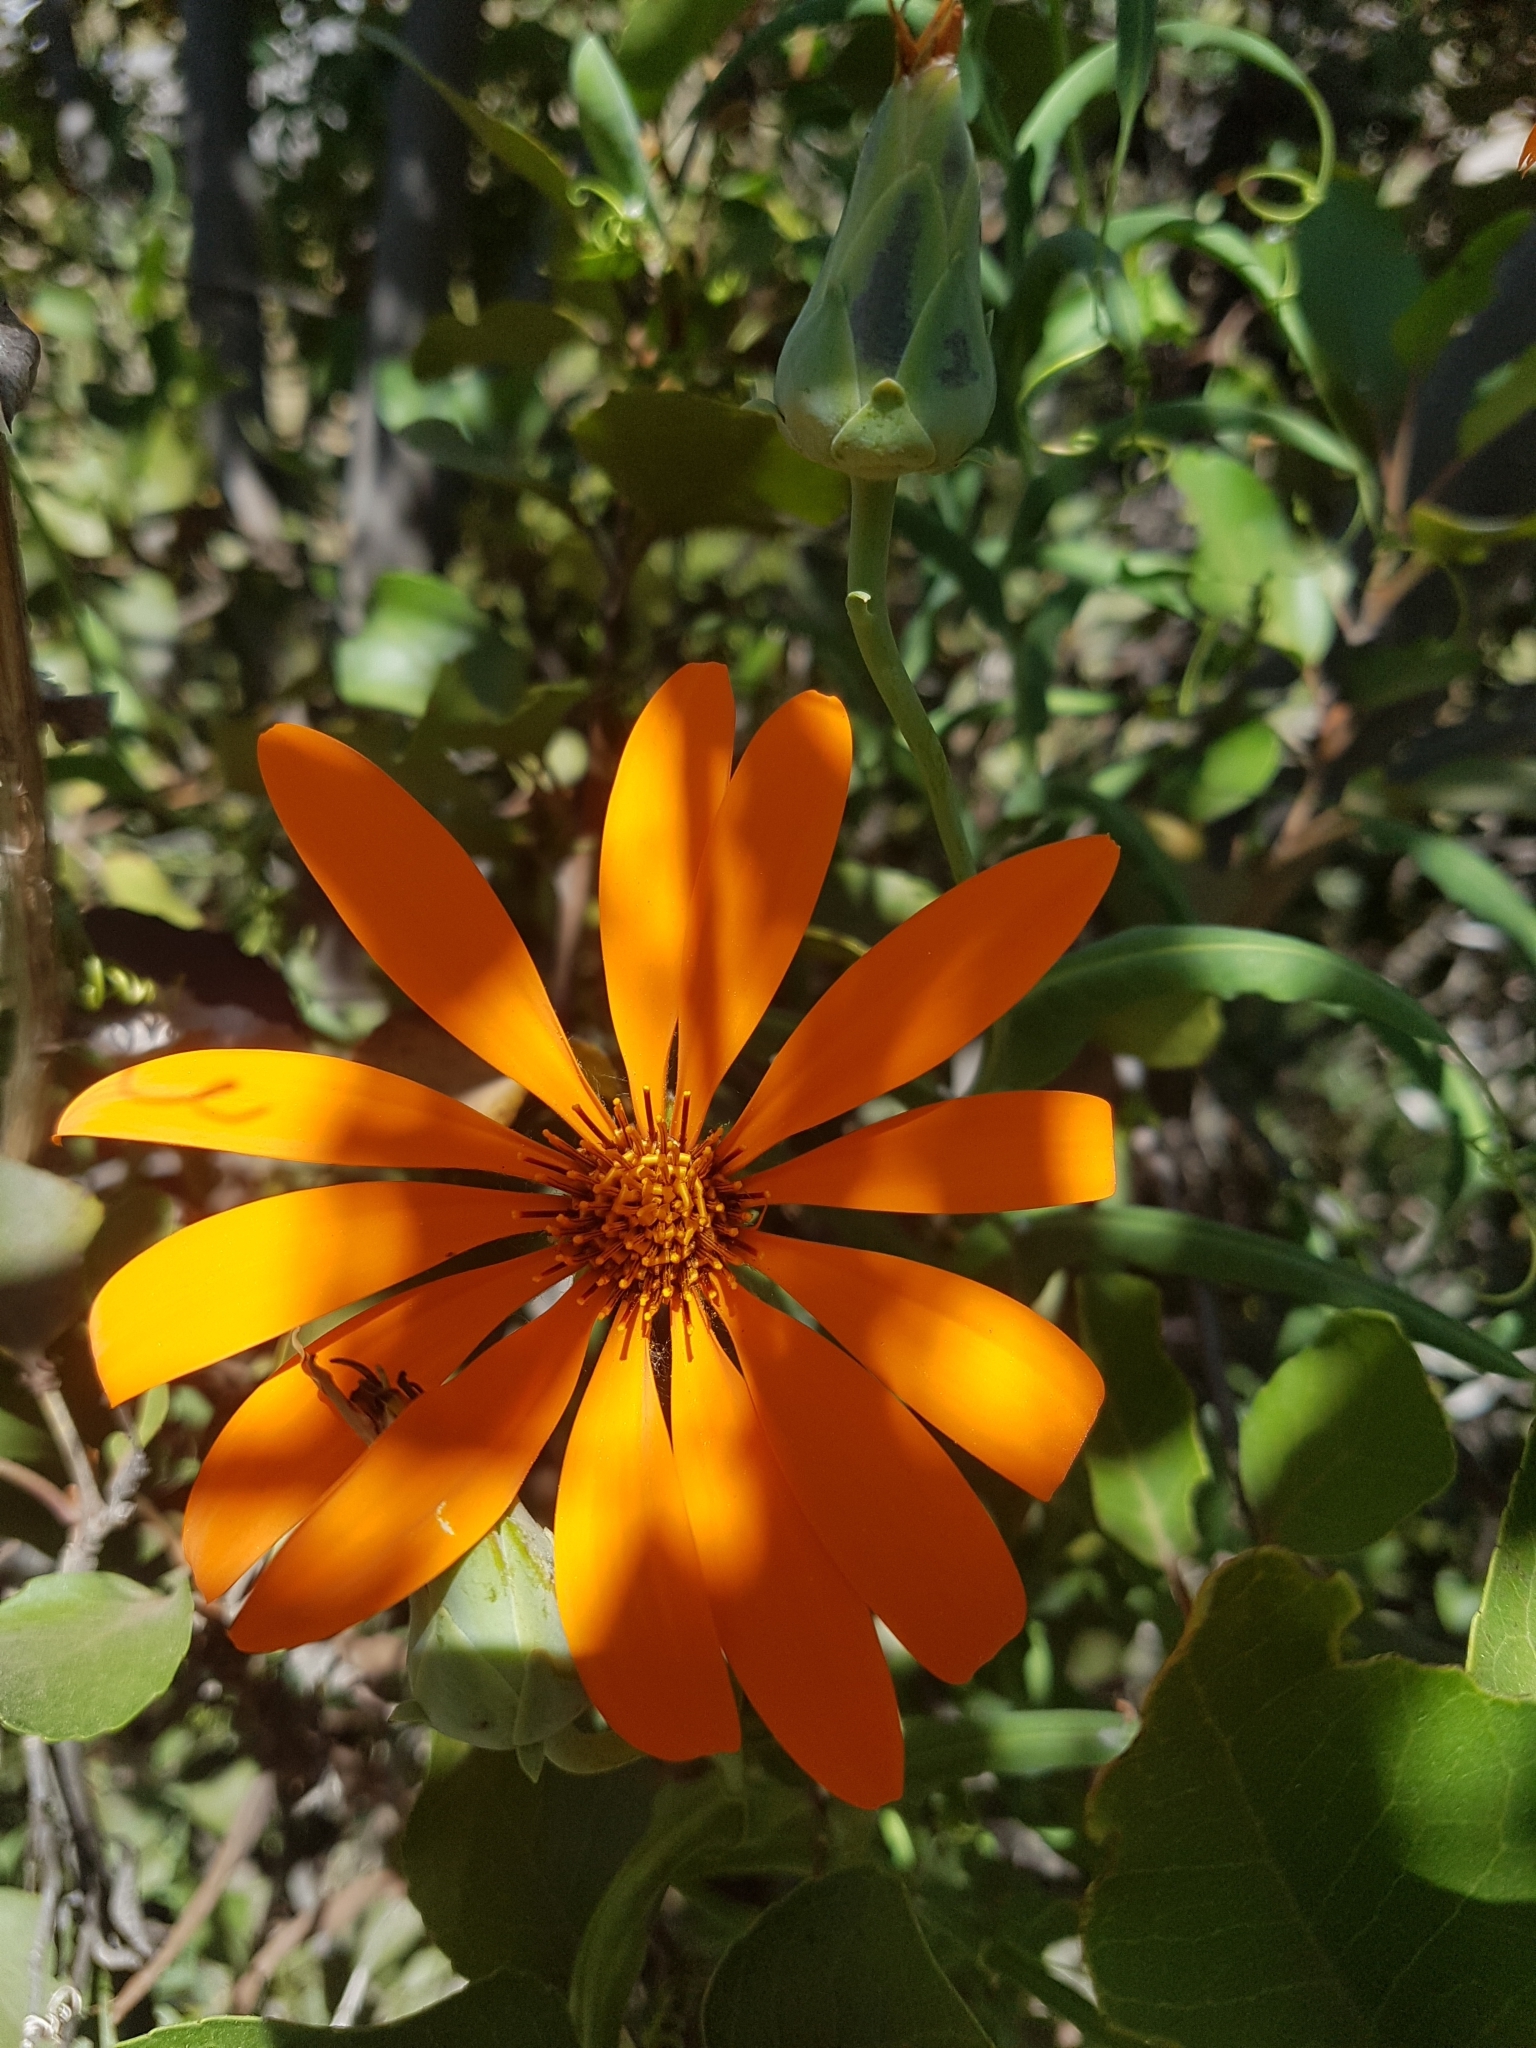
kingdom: Plantae
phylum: Tracheophyta
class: Magnoliopsida
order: Asterales
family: Asteraceae
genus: Mutisia
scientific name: Mutisia decurrens
